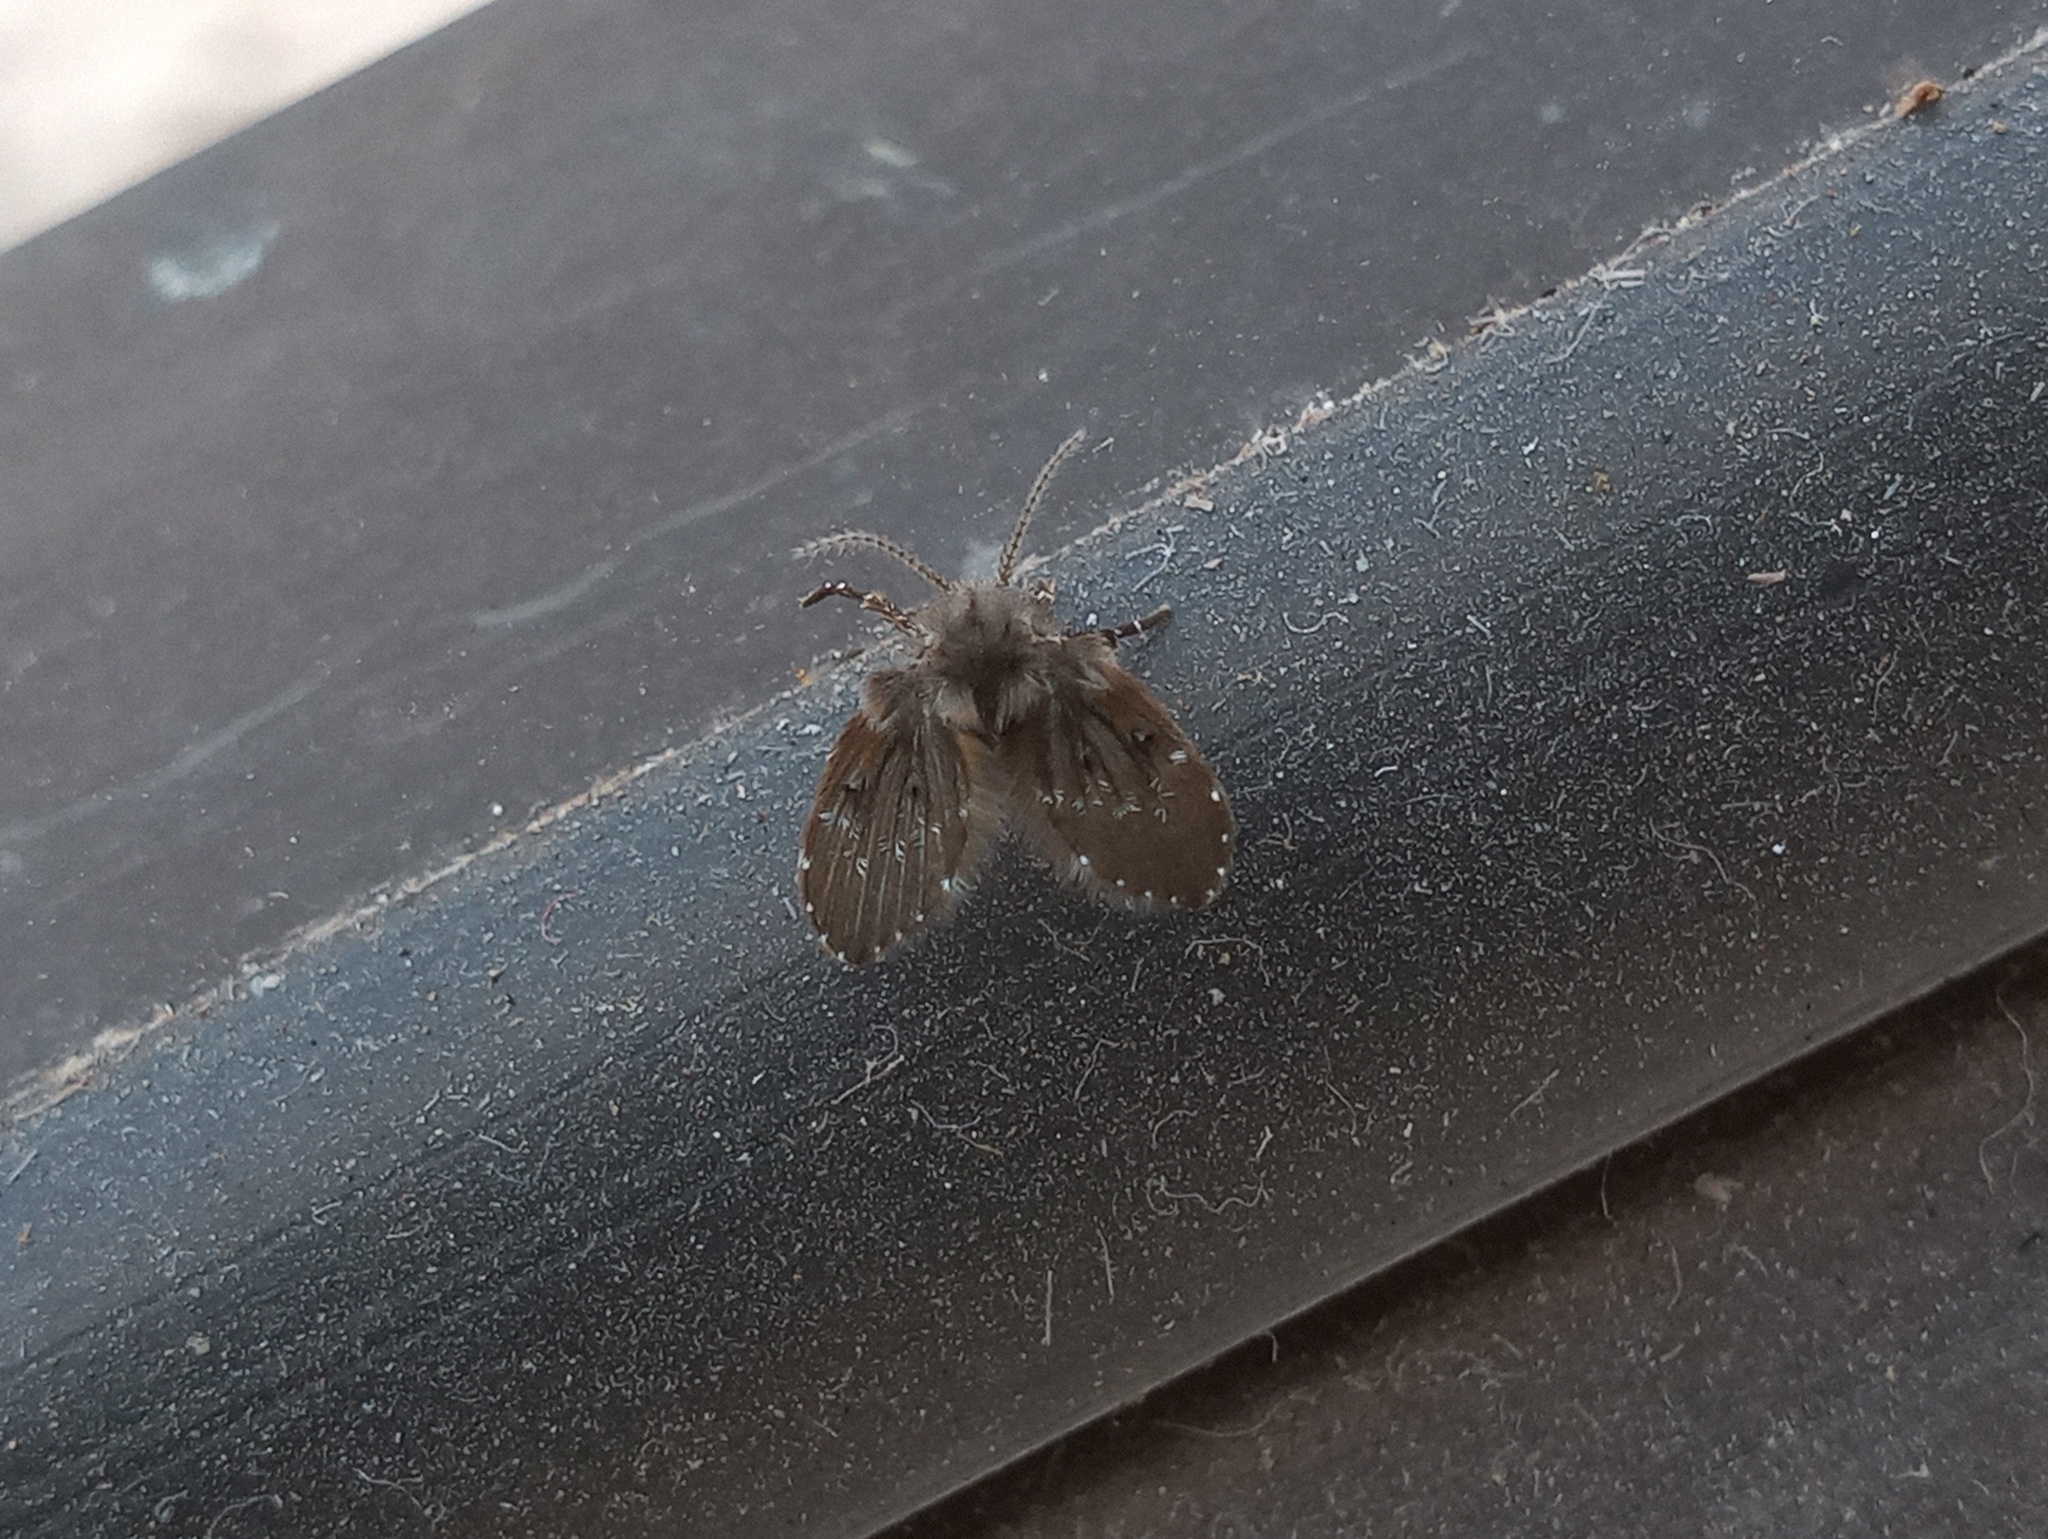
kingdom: Animalia
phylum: Arthropoda
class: Insecta
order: Diptera
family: Psychodidae
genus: Clogmia
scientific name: Clogmia albipunctatus
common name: White-spotted moth fly
